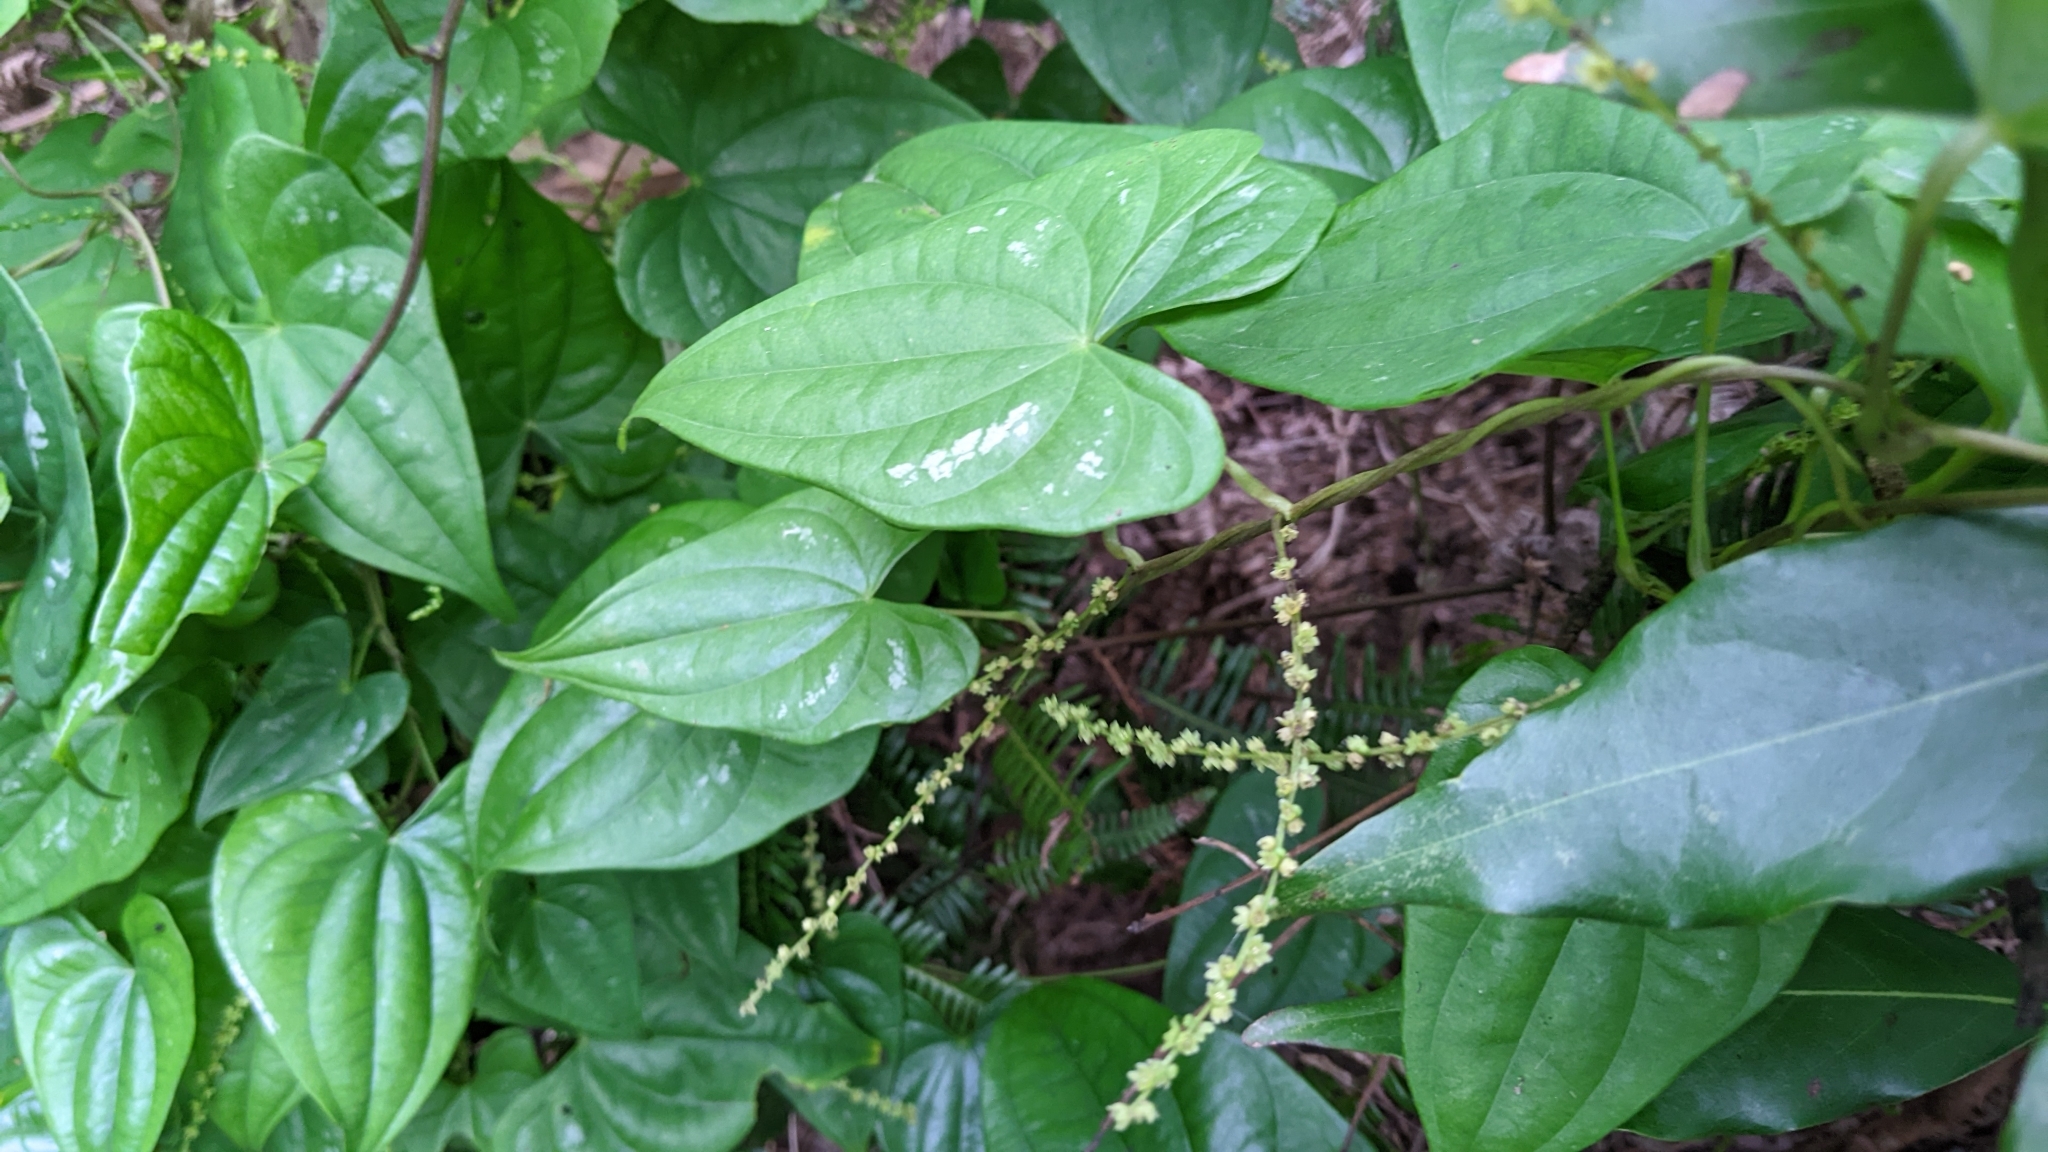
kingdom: Plantae
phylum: Tracheophyta
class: Liliopsida
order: Dioscoreales
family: Dioscoreaceae
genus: Dioscorea
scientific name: Dioscorea collettii
